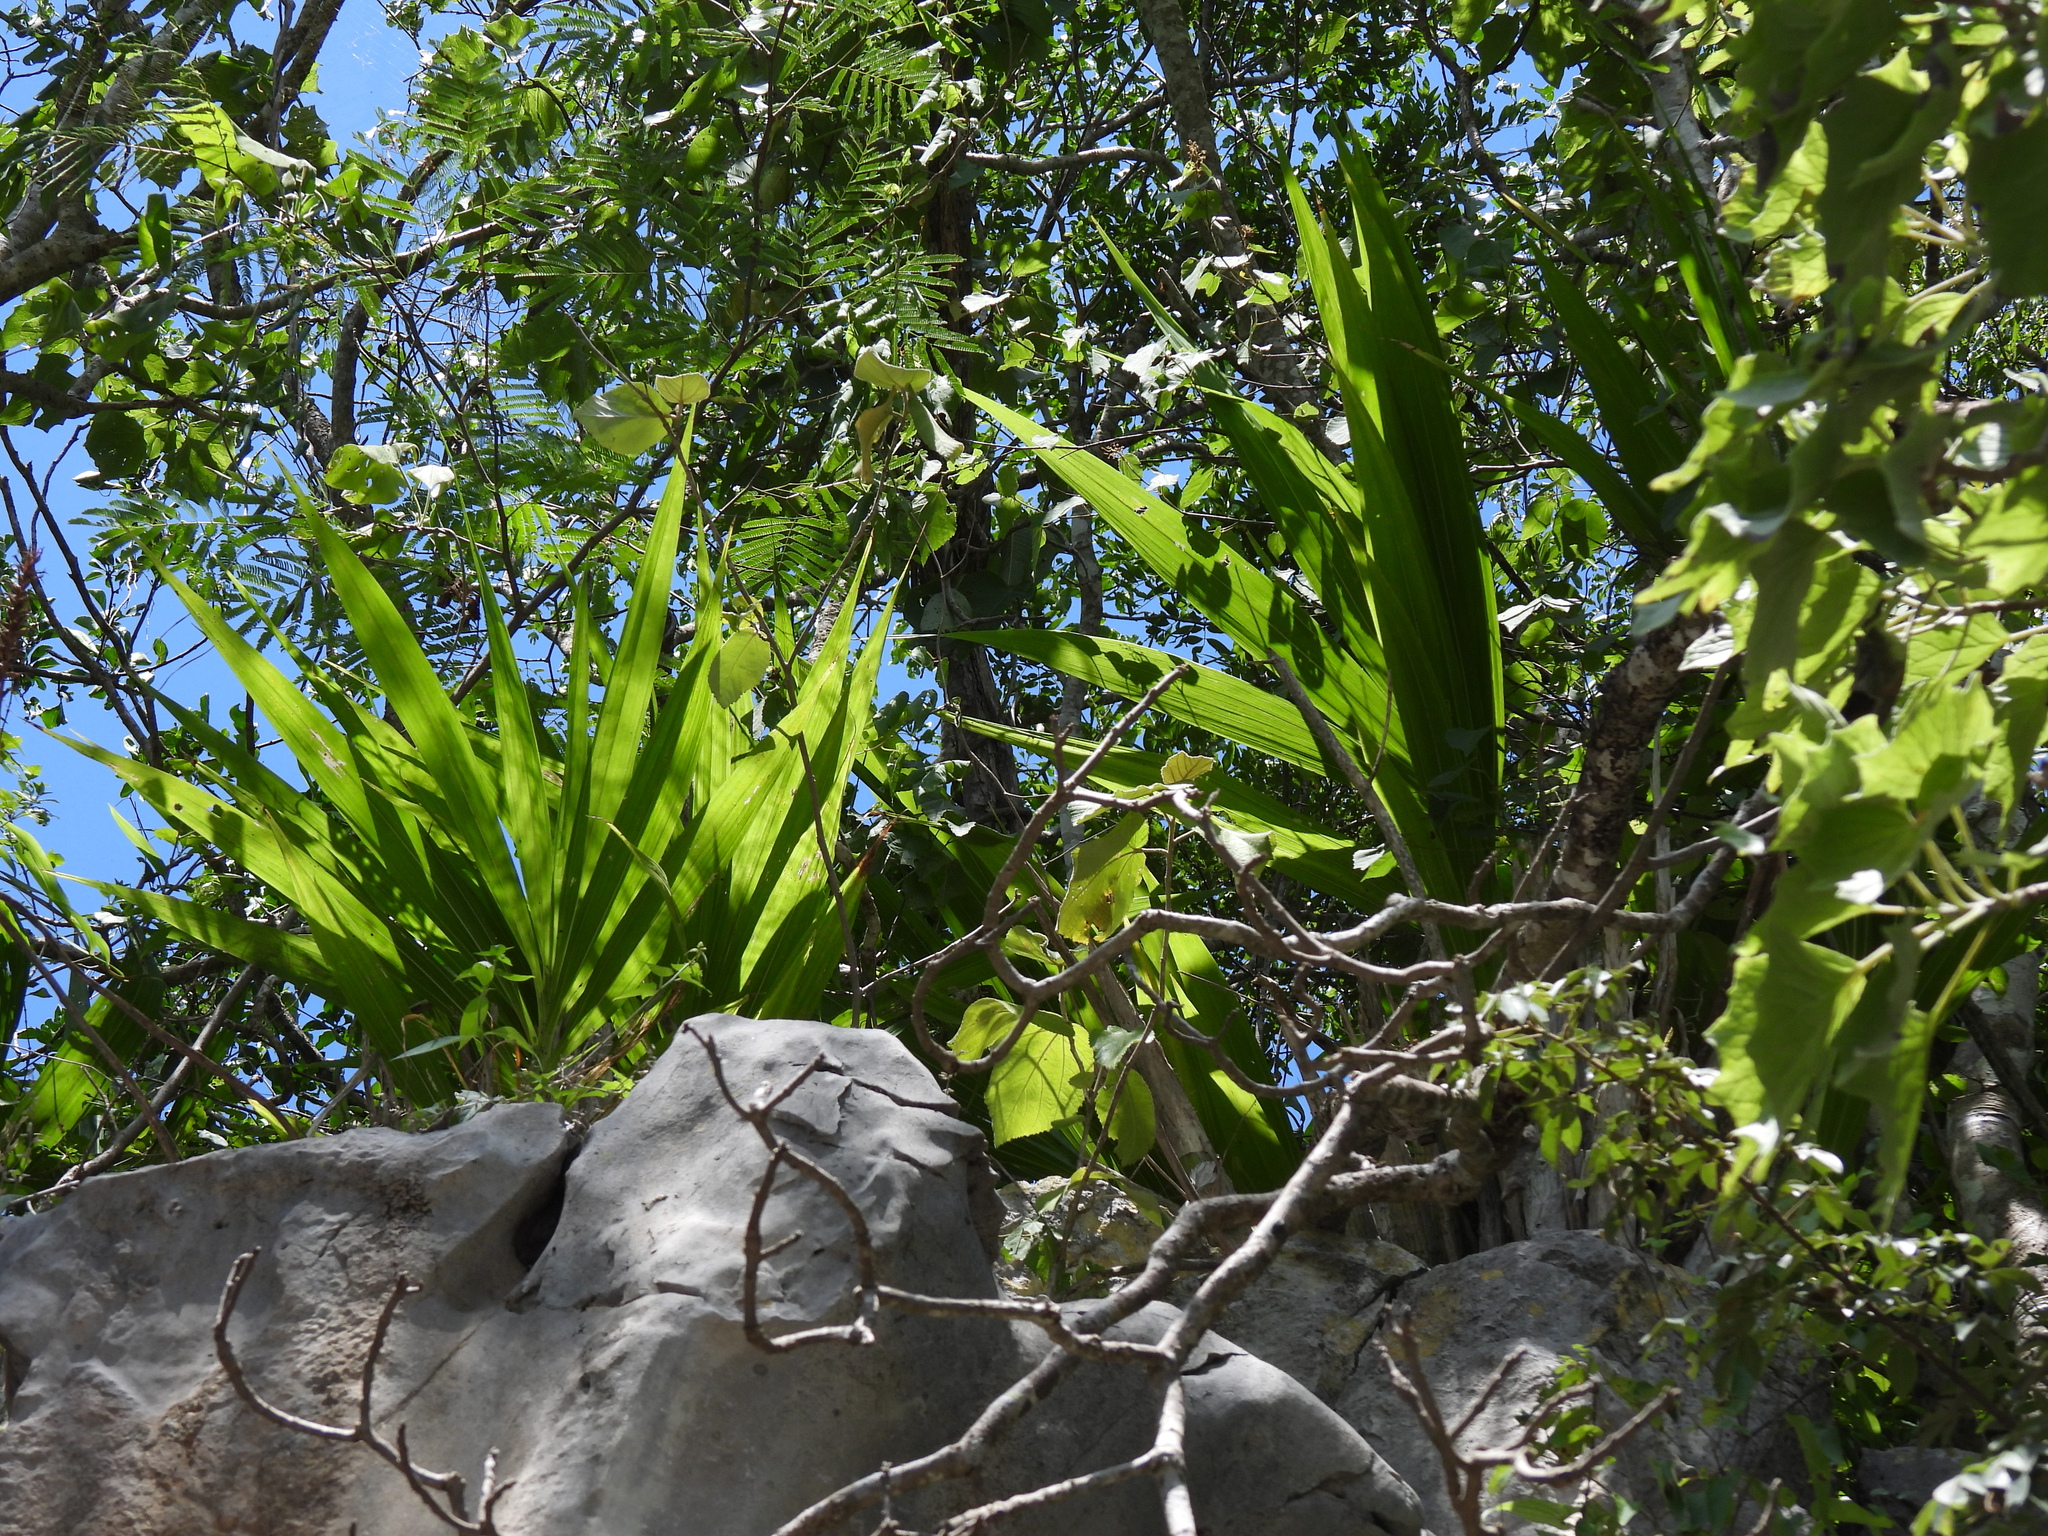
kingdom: Plantae
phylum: Tracheophyta
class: Liliopsida
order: Asparagales
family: Orchidaceae
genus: Cyrtopodium
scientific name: Cyrtopodium macrobulbon
